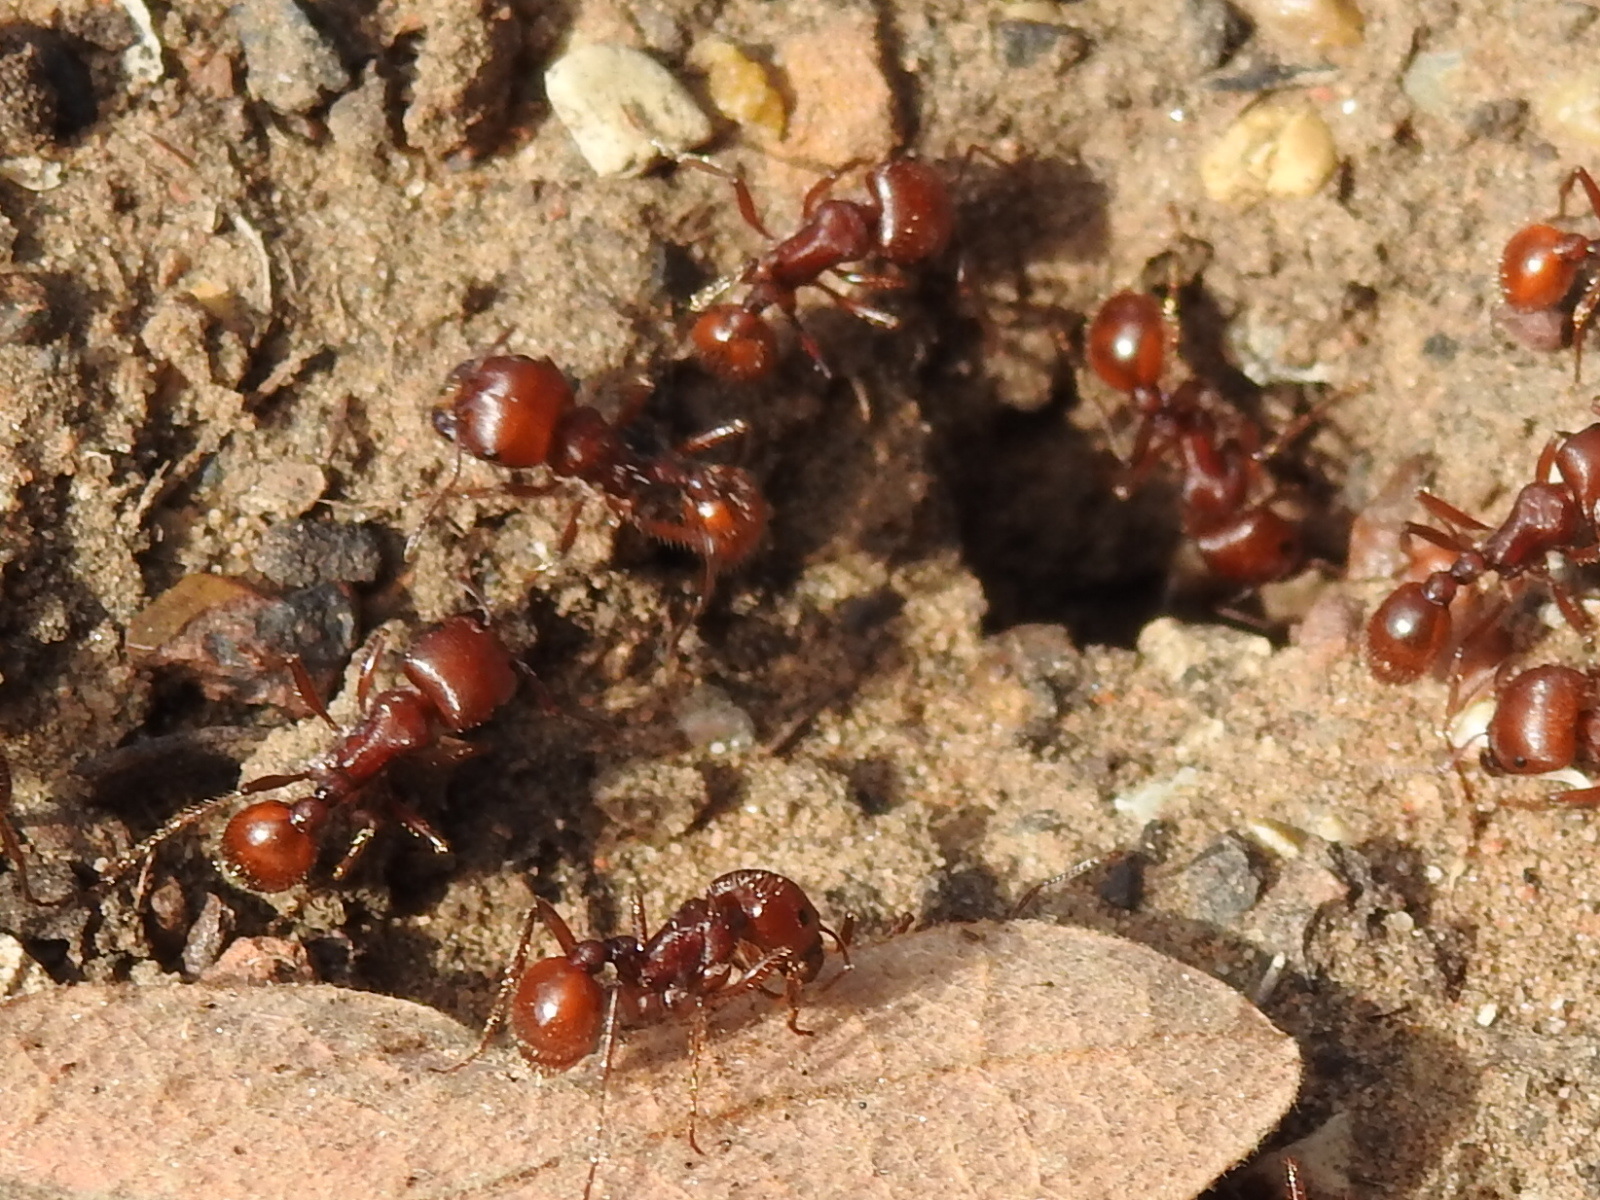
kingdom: Animalia
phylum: Arthropoda
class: Insecta
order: Hymenoptera
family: Formicidae
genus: Pogonomyrmex
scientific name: Pogonomyrmex barbatus
